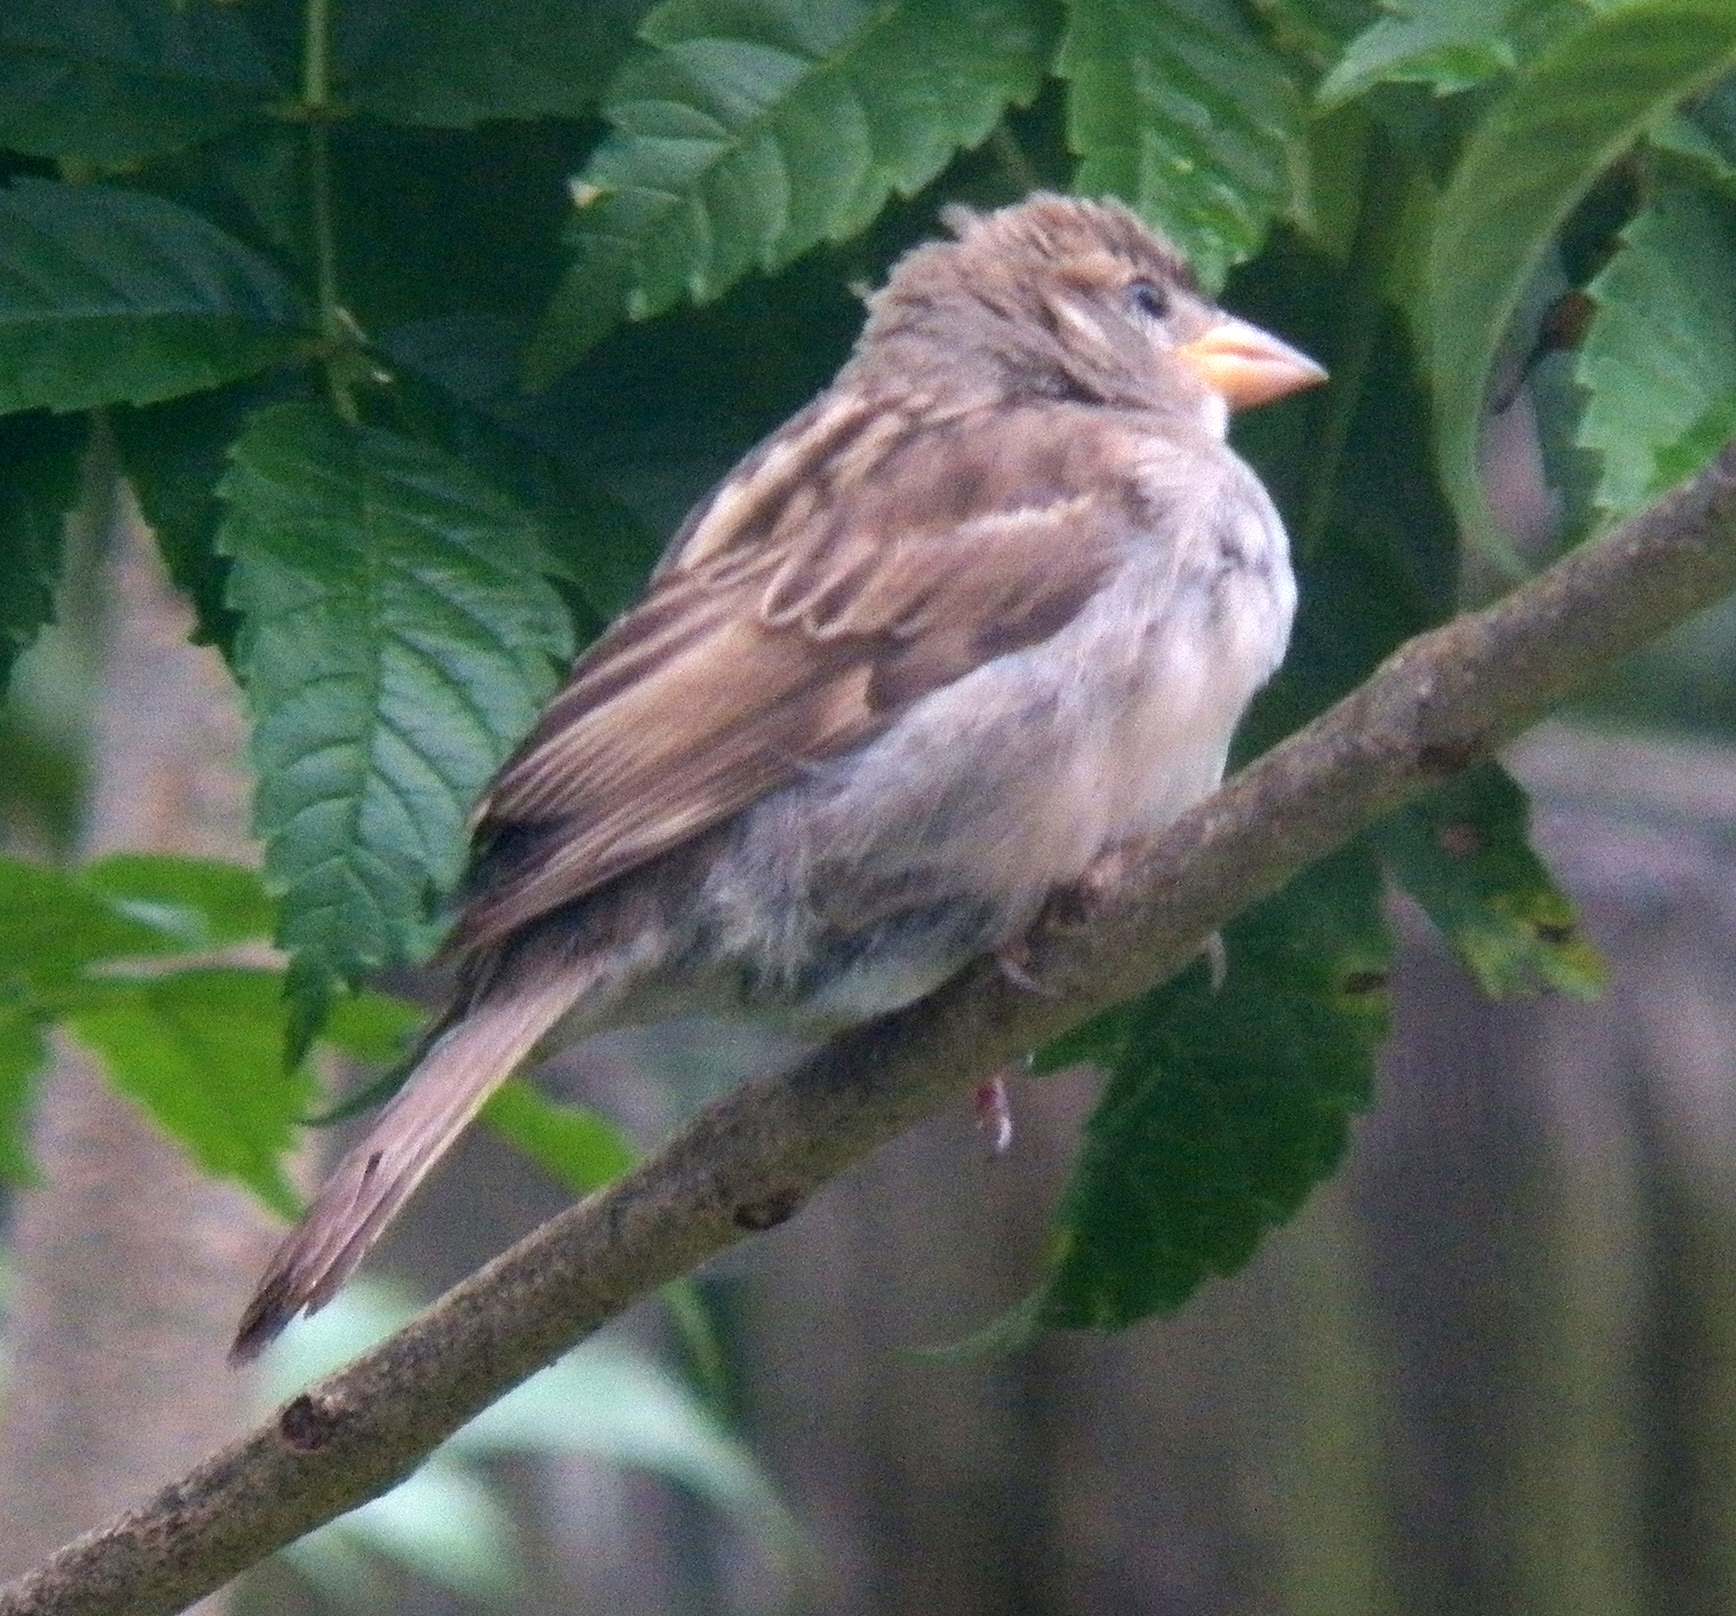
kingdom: Animalia
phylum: Chordata
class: Aves
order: Passeriformes
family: Passeridae
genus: Passer
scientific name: Passer domesticus
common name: House sparrow
